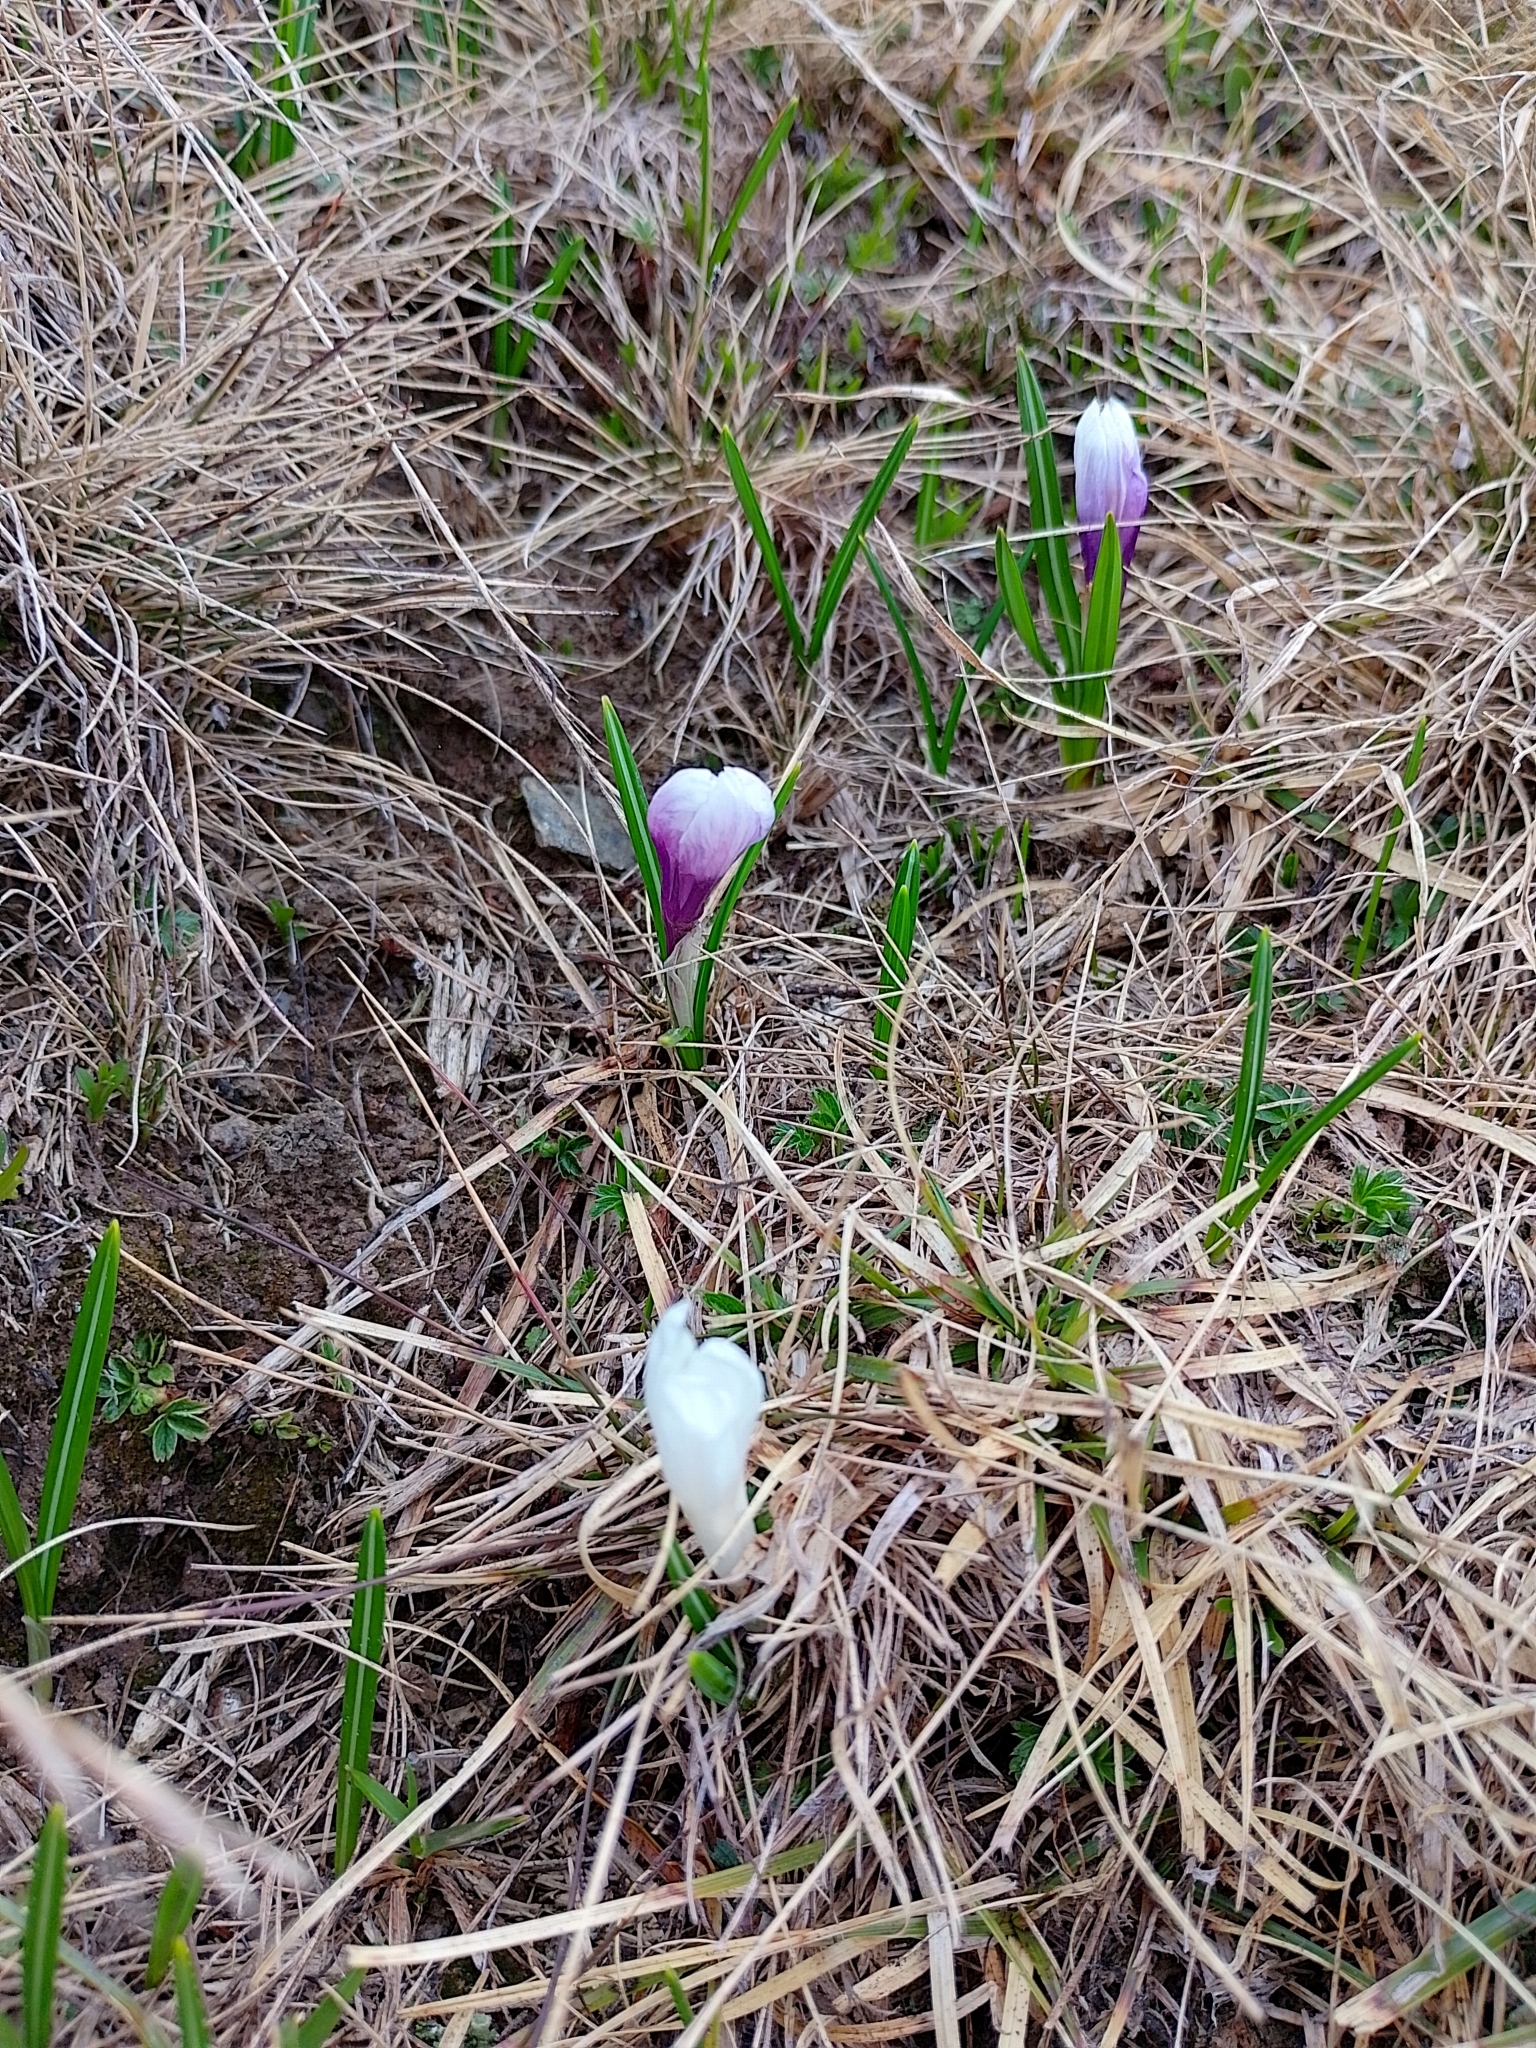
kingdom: Plantae
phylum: Tracheophyta
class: Liliopsida
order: Asparagales
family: Iridaceae
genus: Crocus
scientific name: Crocus vernus
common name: Spring crocus
